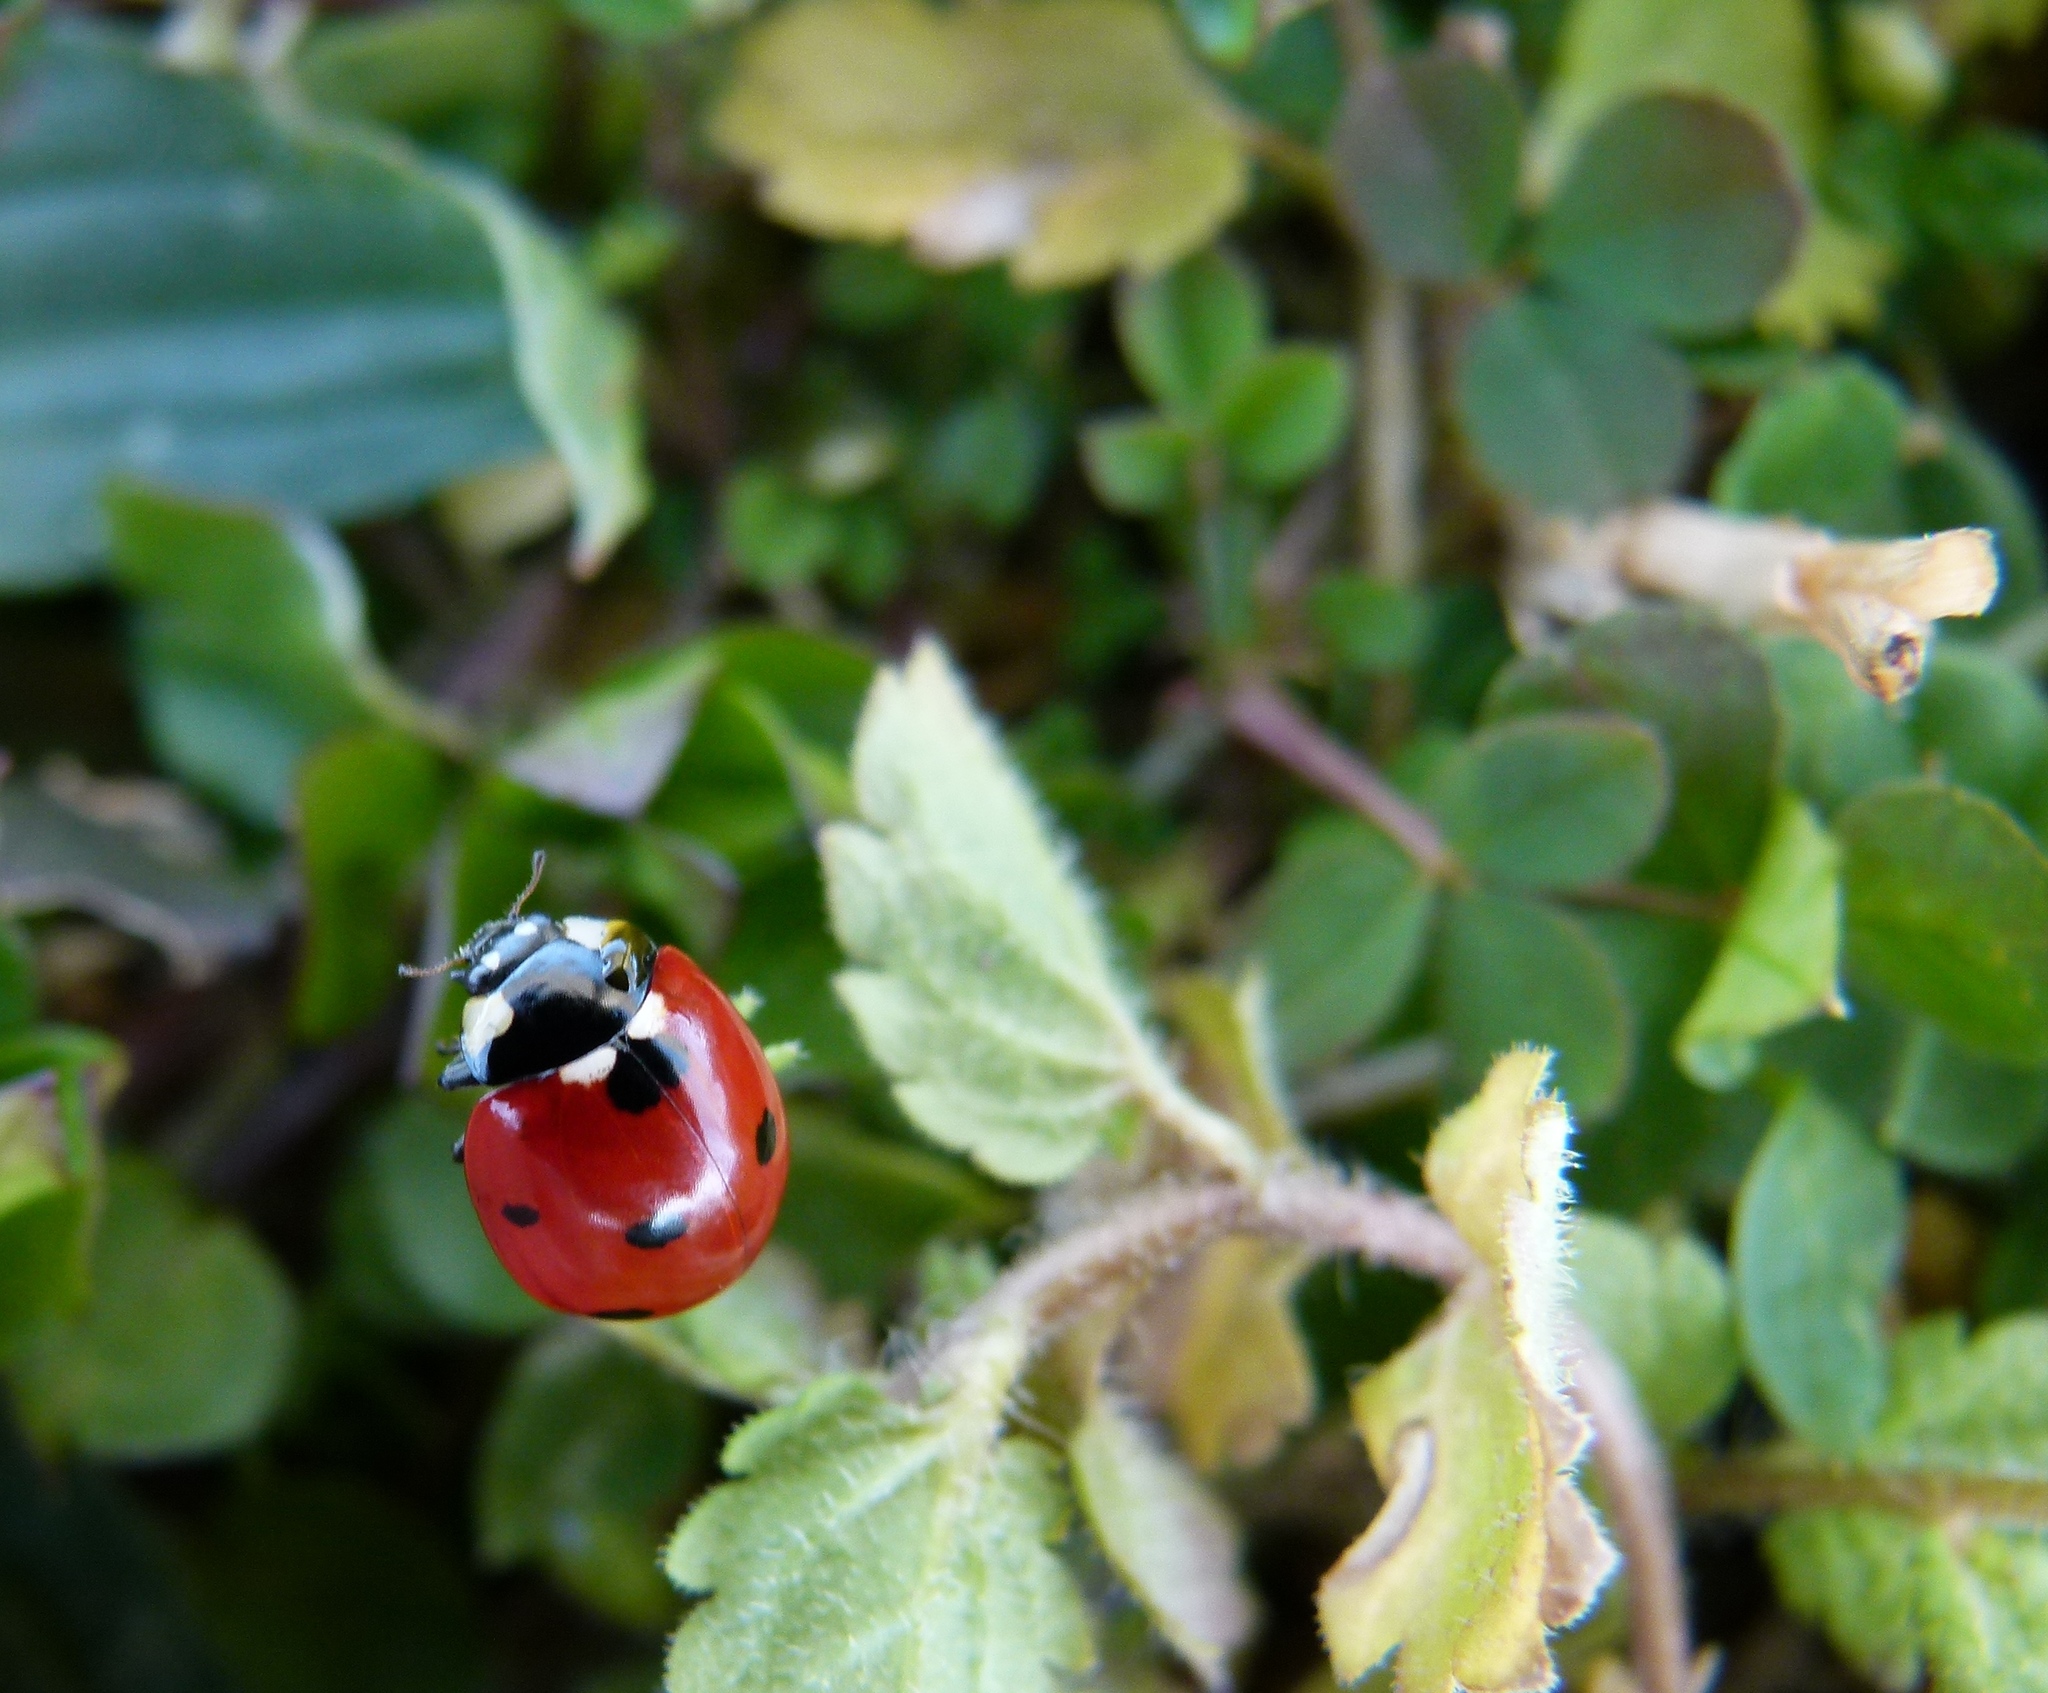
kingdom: Animalia
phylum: Arthropoda
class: Insecta
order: Coleoptera
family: Coccinellidae
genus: Coccinella
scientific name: Coccinella septempunctata
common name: Sevenspotted lady beetle
